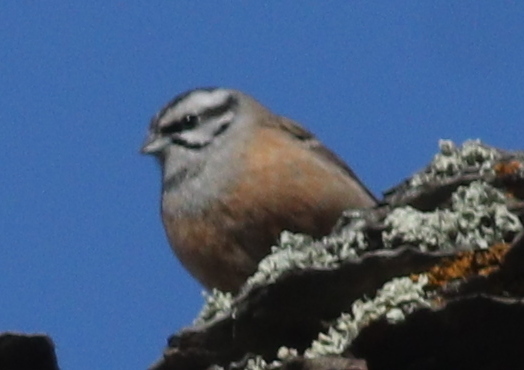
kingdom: Animalia
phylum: Chordata
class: Aves
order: Passeriformes
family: Emberizidae
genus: Emberiza
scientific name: Emberiza cia
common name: Rock bunting
